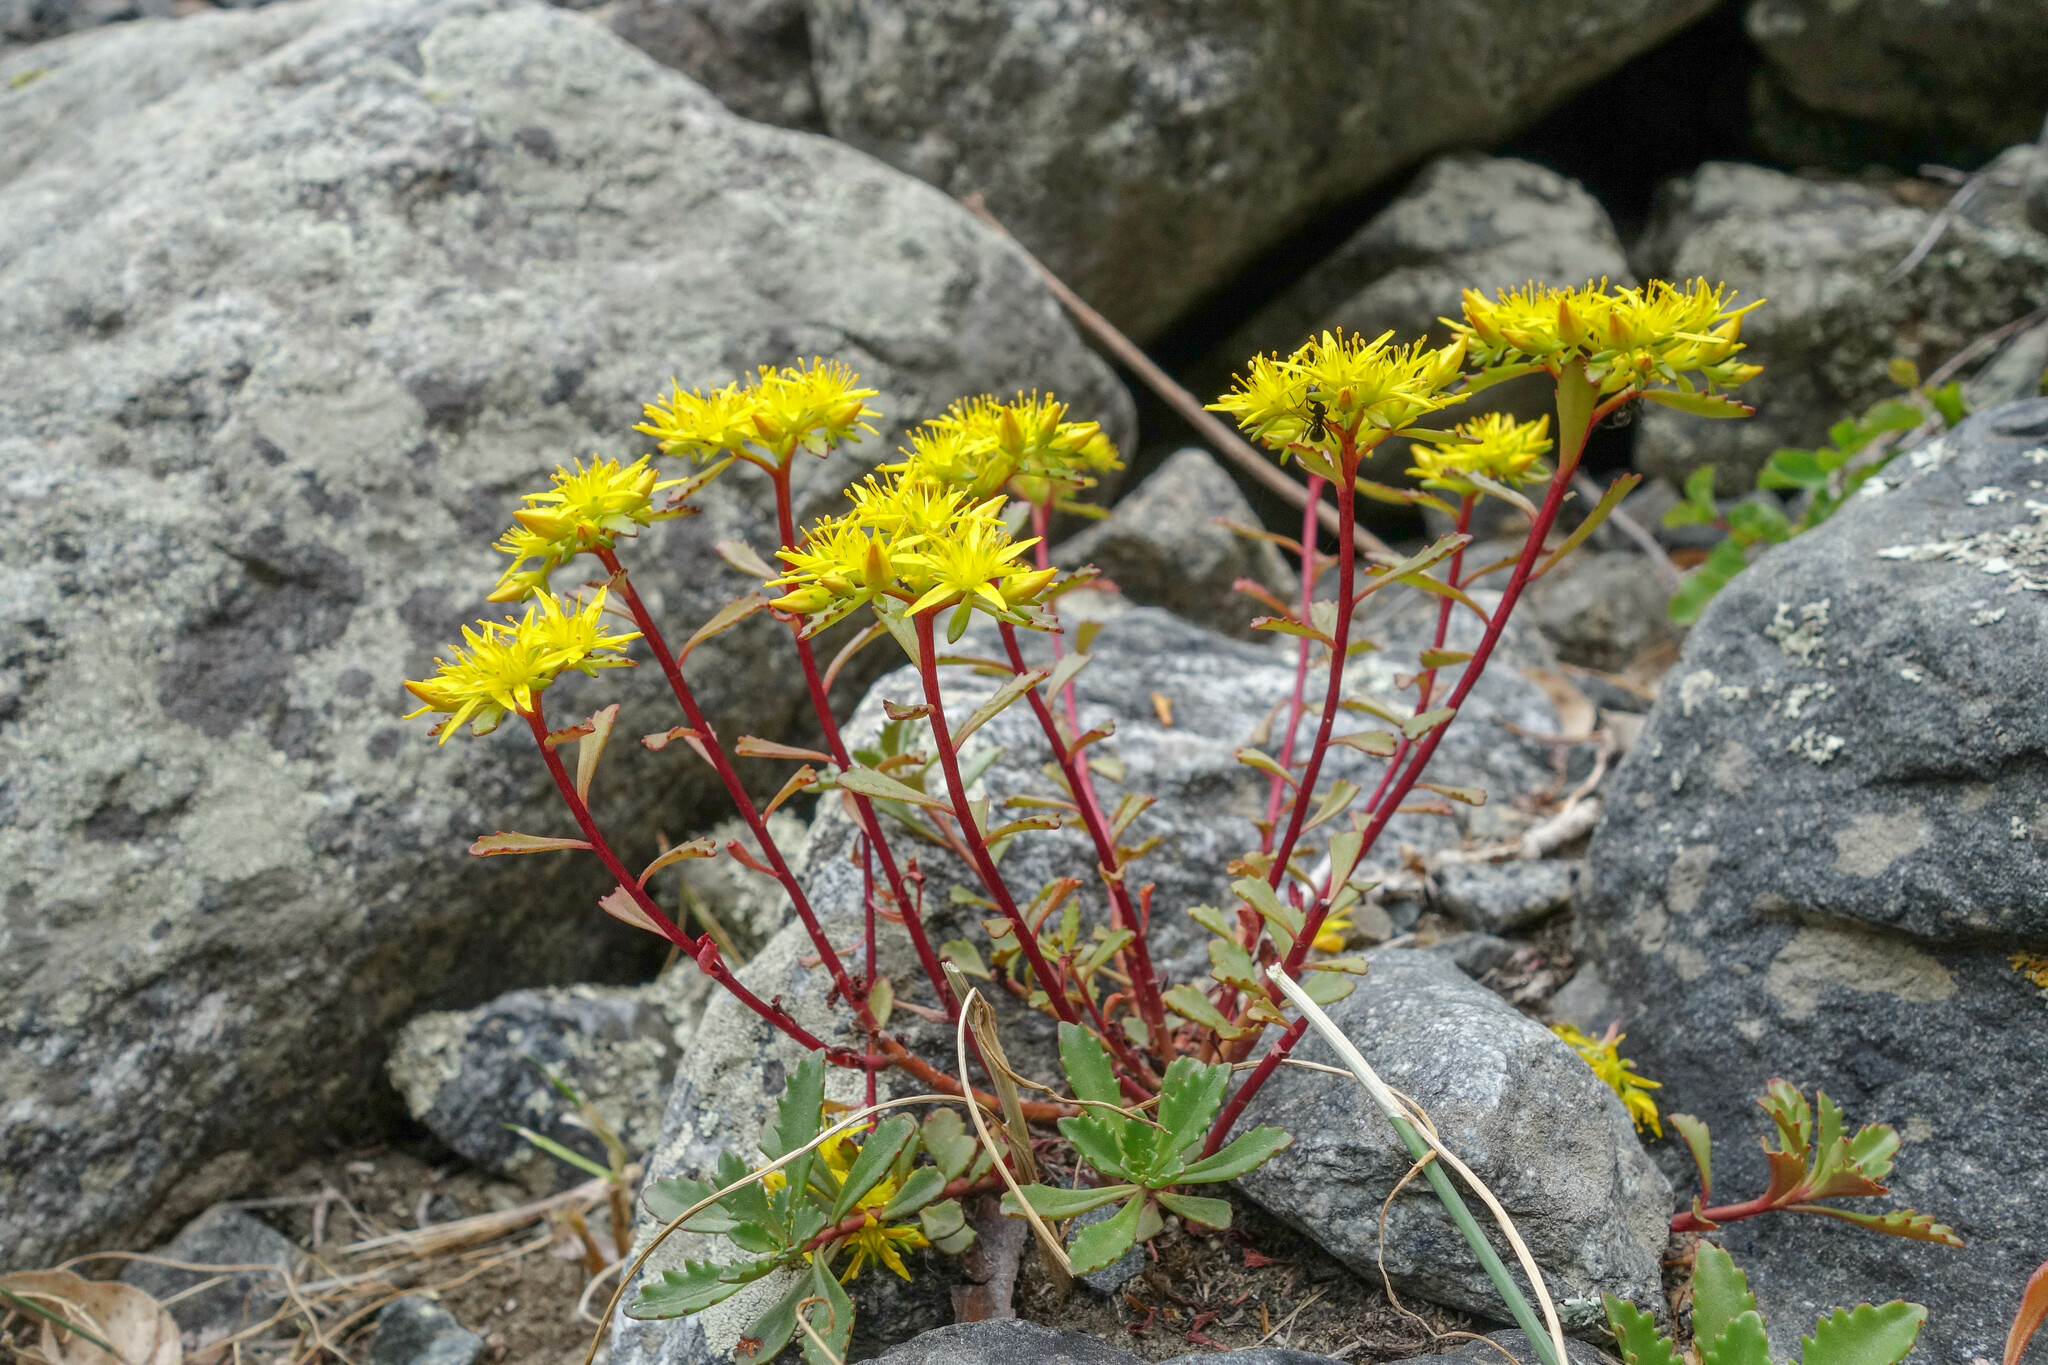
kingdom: Plantae
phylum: Tracheophyta
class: Magnoliopsida
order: Saxifragales
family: Crassulaceae
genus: Phedimus
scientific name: Phedimus hybridus
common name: Hybrid stonecrop
